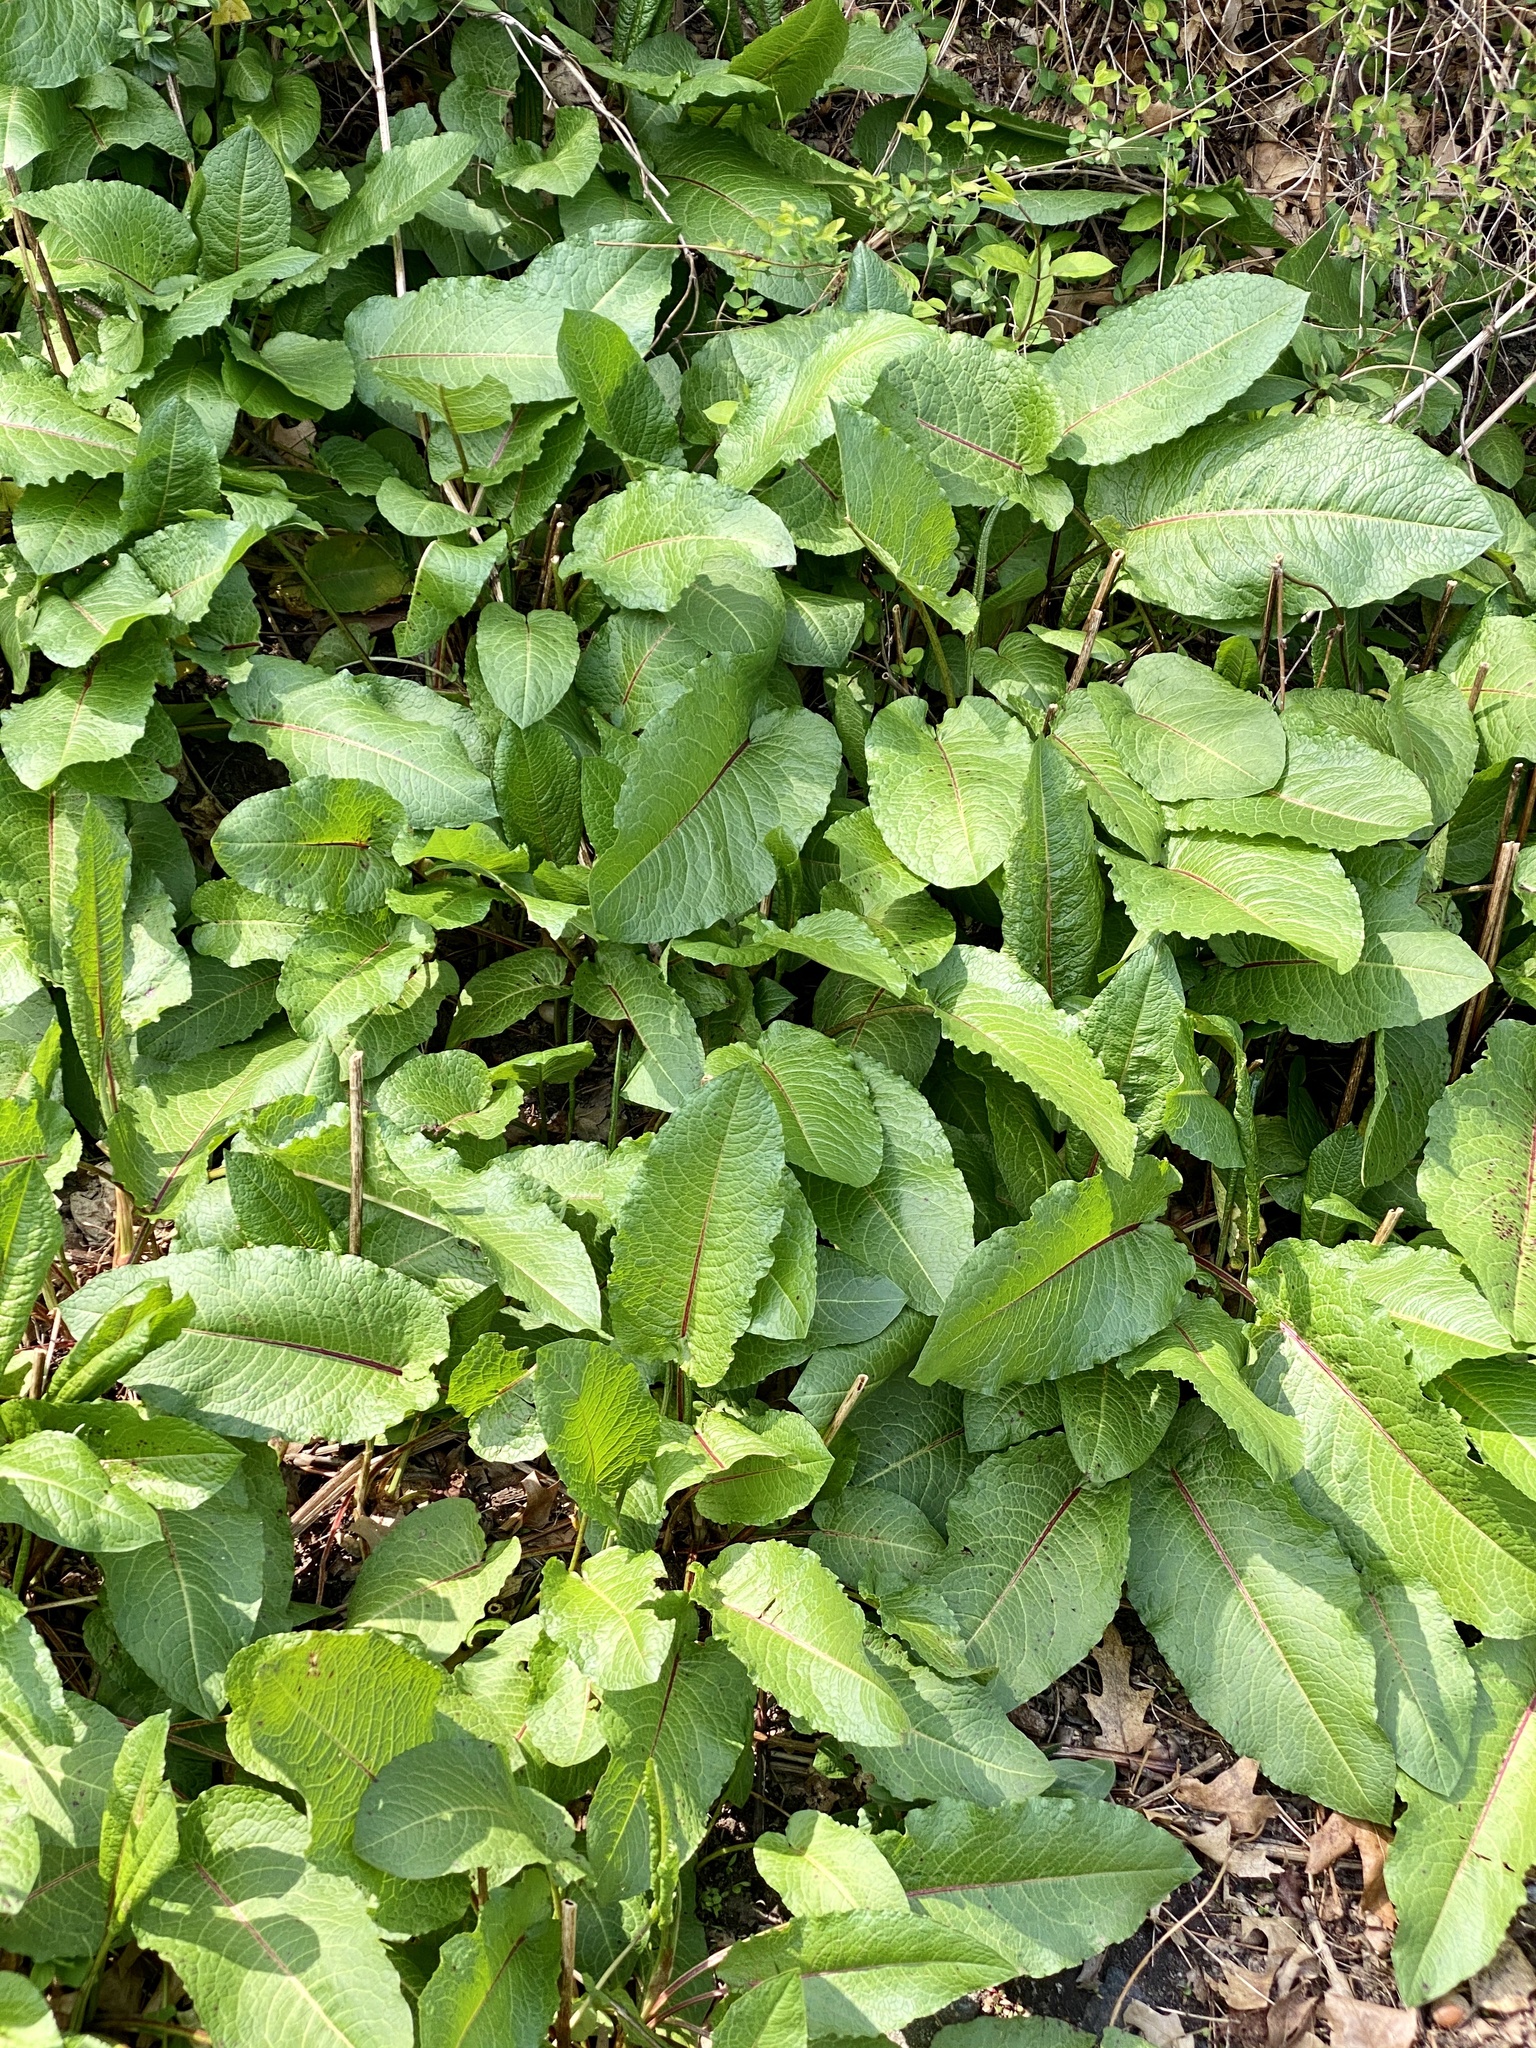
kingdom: Plantae
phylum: Tracheophyta
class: Magnoliopsida
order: Caryophyllales
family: Polygonaceae
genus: Rumex
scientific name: Rumex obtusifolius
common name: Bitter dock
